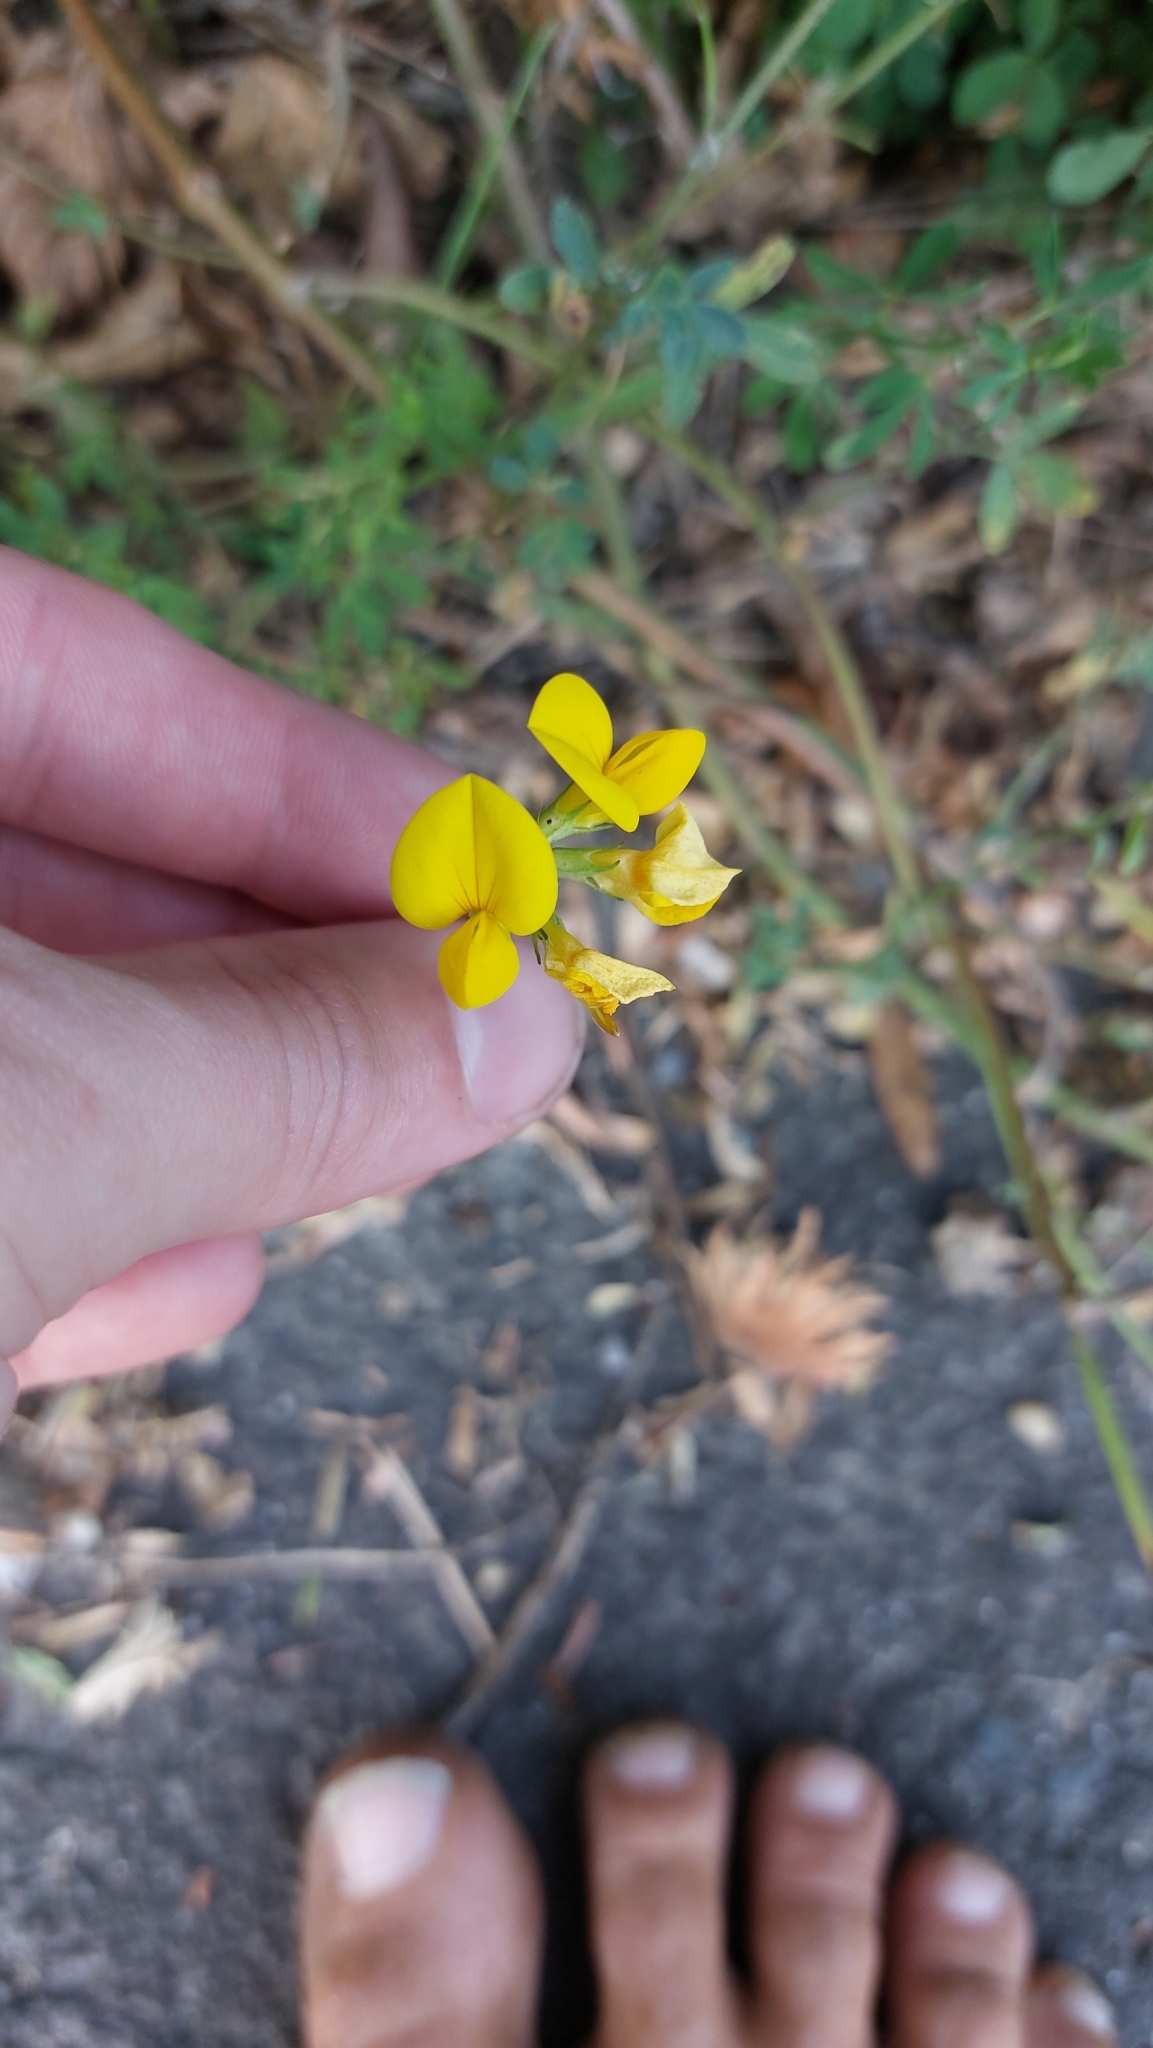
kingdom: Plantae
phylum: Tracheophyta
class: Magnoliopsida
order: Fabales
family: Fabaceae
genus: Lotus
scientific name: Lotus corniculatus
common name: Common bird's-foot-trefoil
